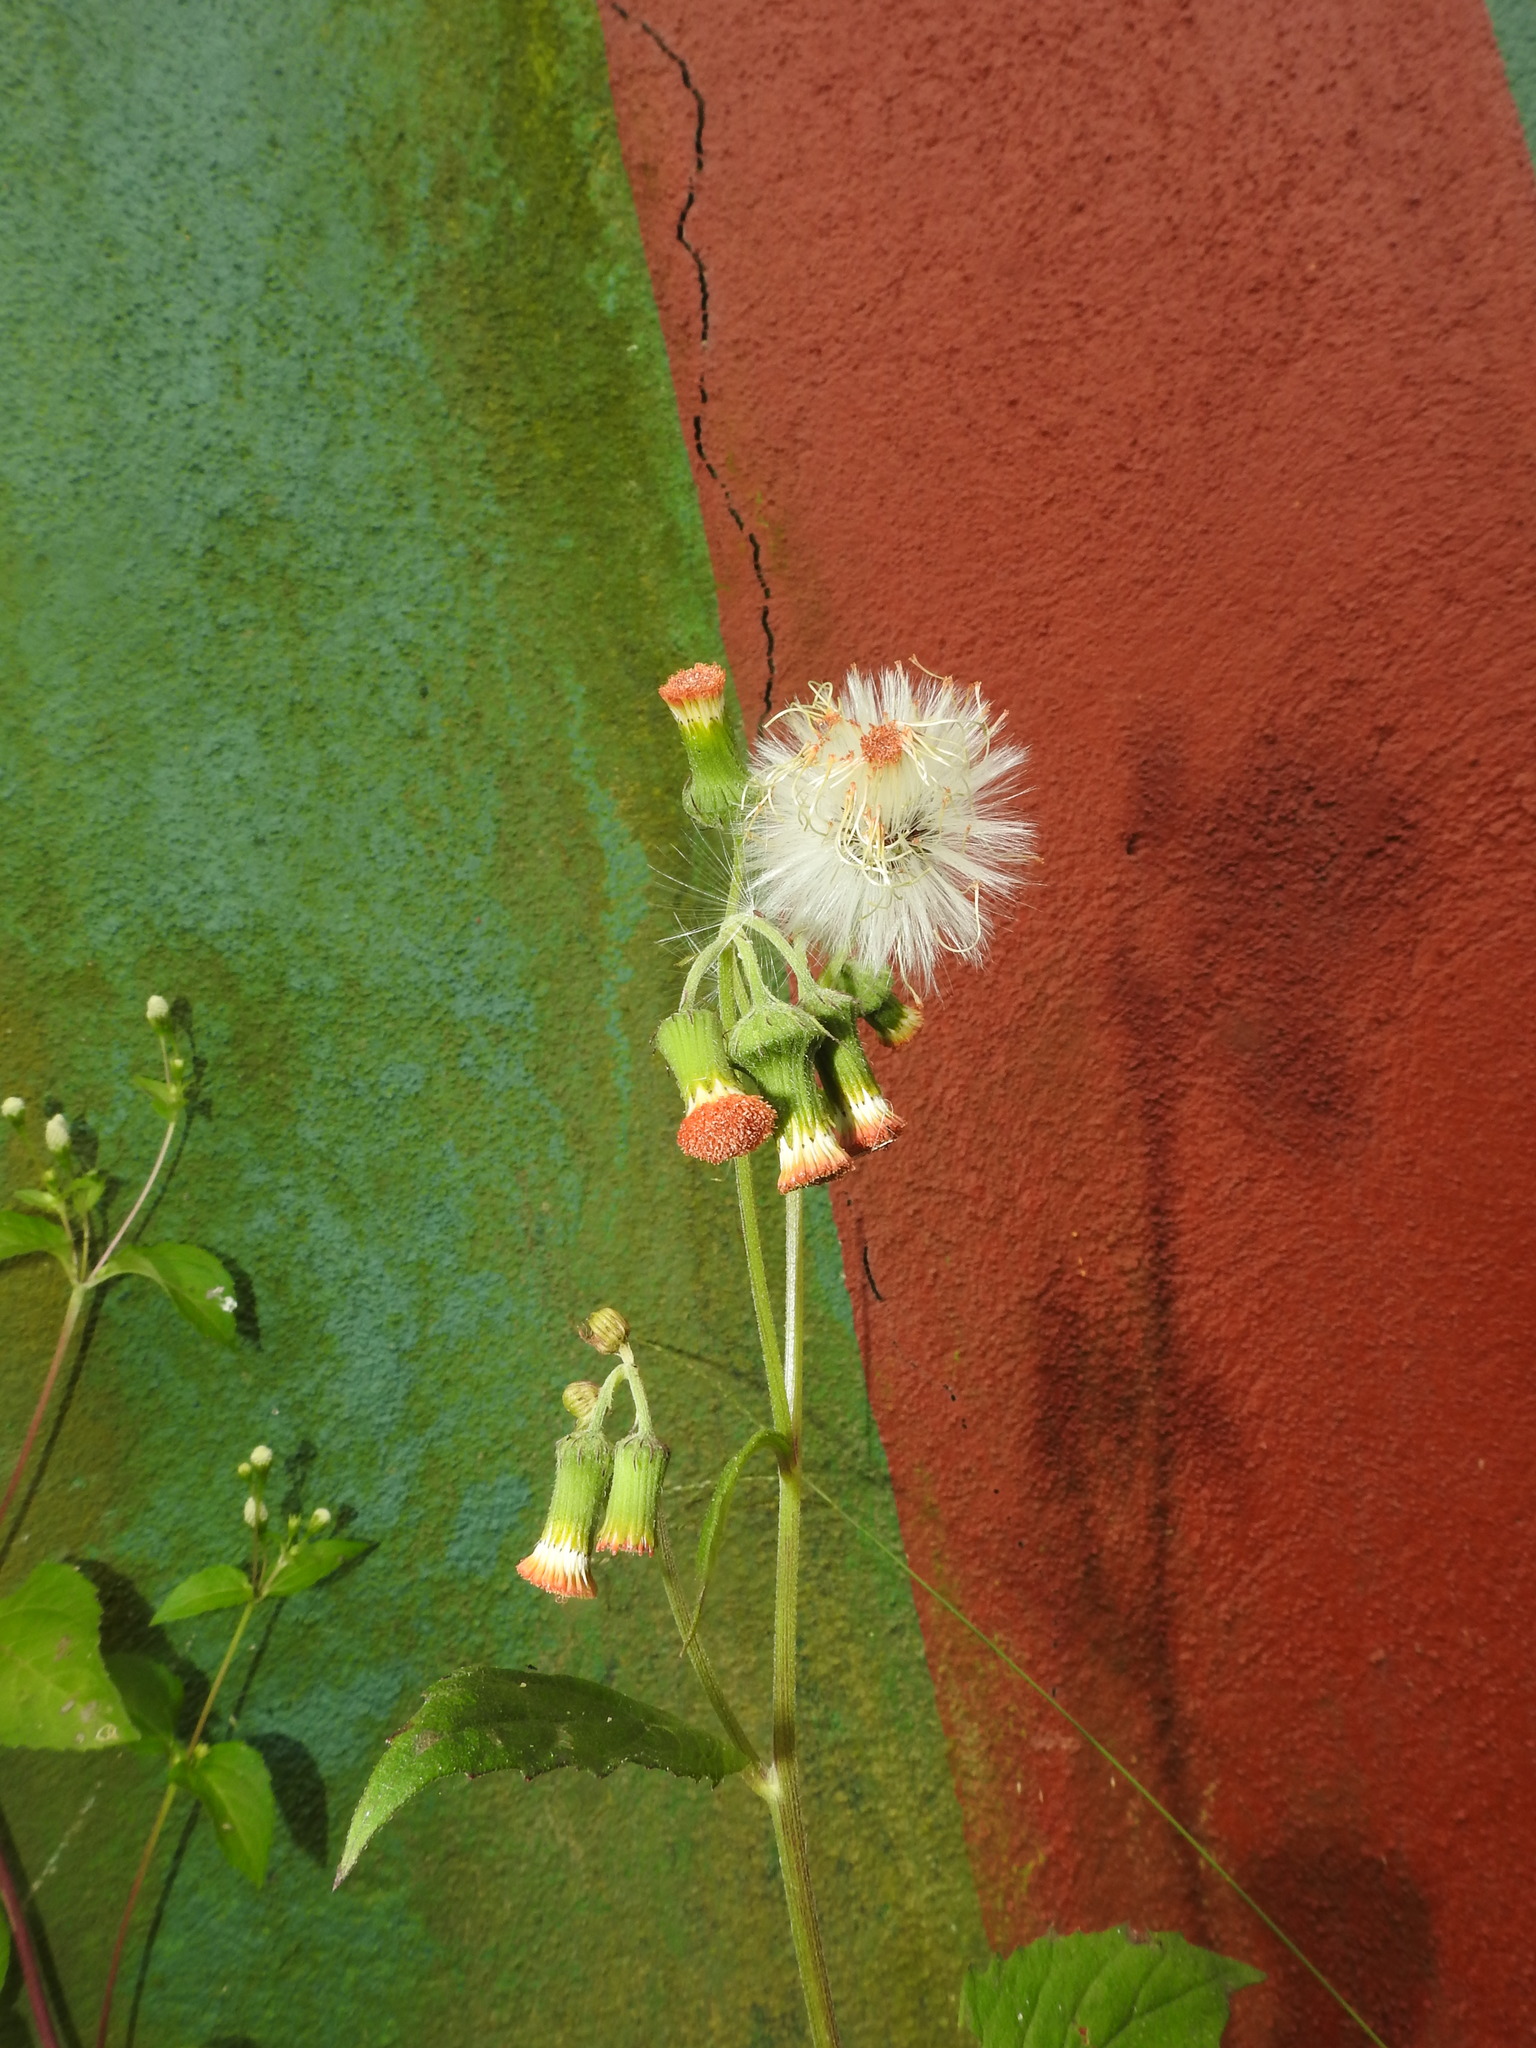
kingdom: Plantae
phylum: Tracheophyta
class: Magnoliopsida
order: Asterales
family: Asteraceae
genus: Crassocephalum
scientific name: Crassocephalum crepidioides
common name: Redflower ragleaf
